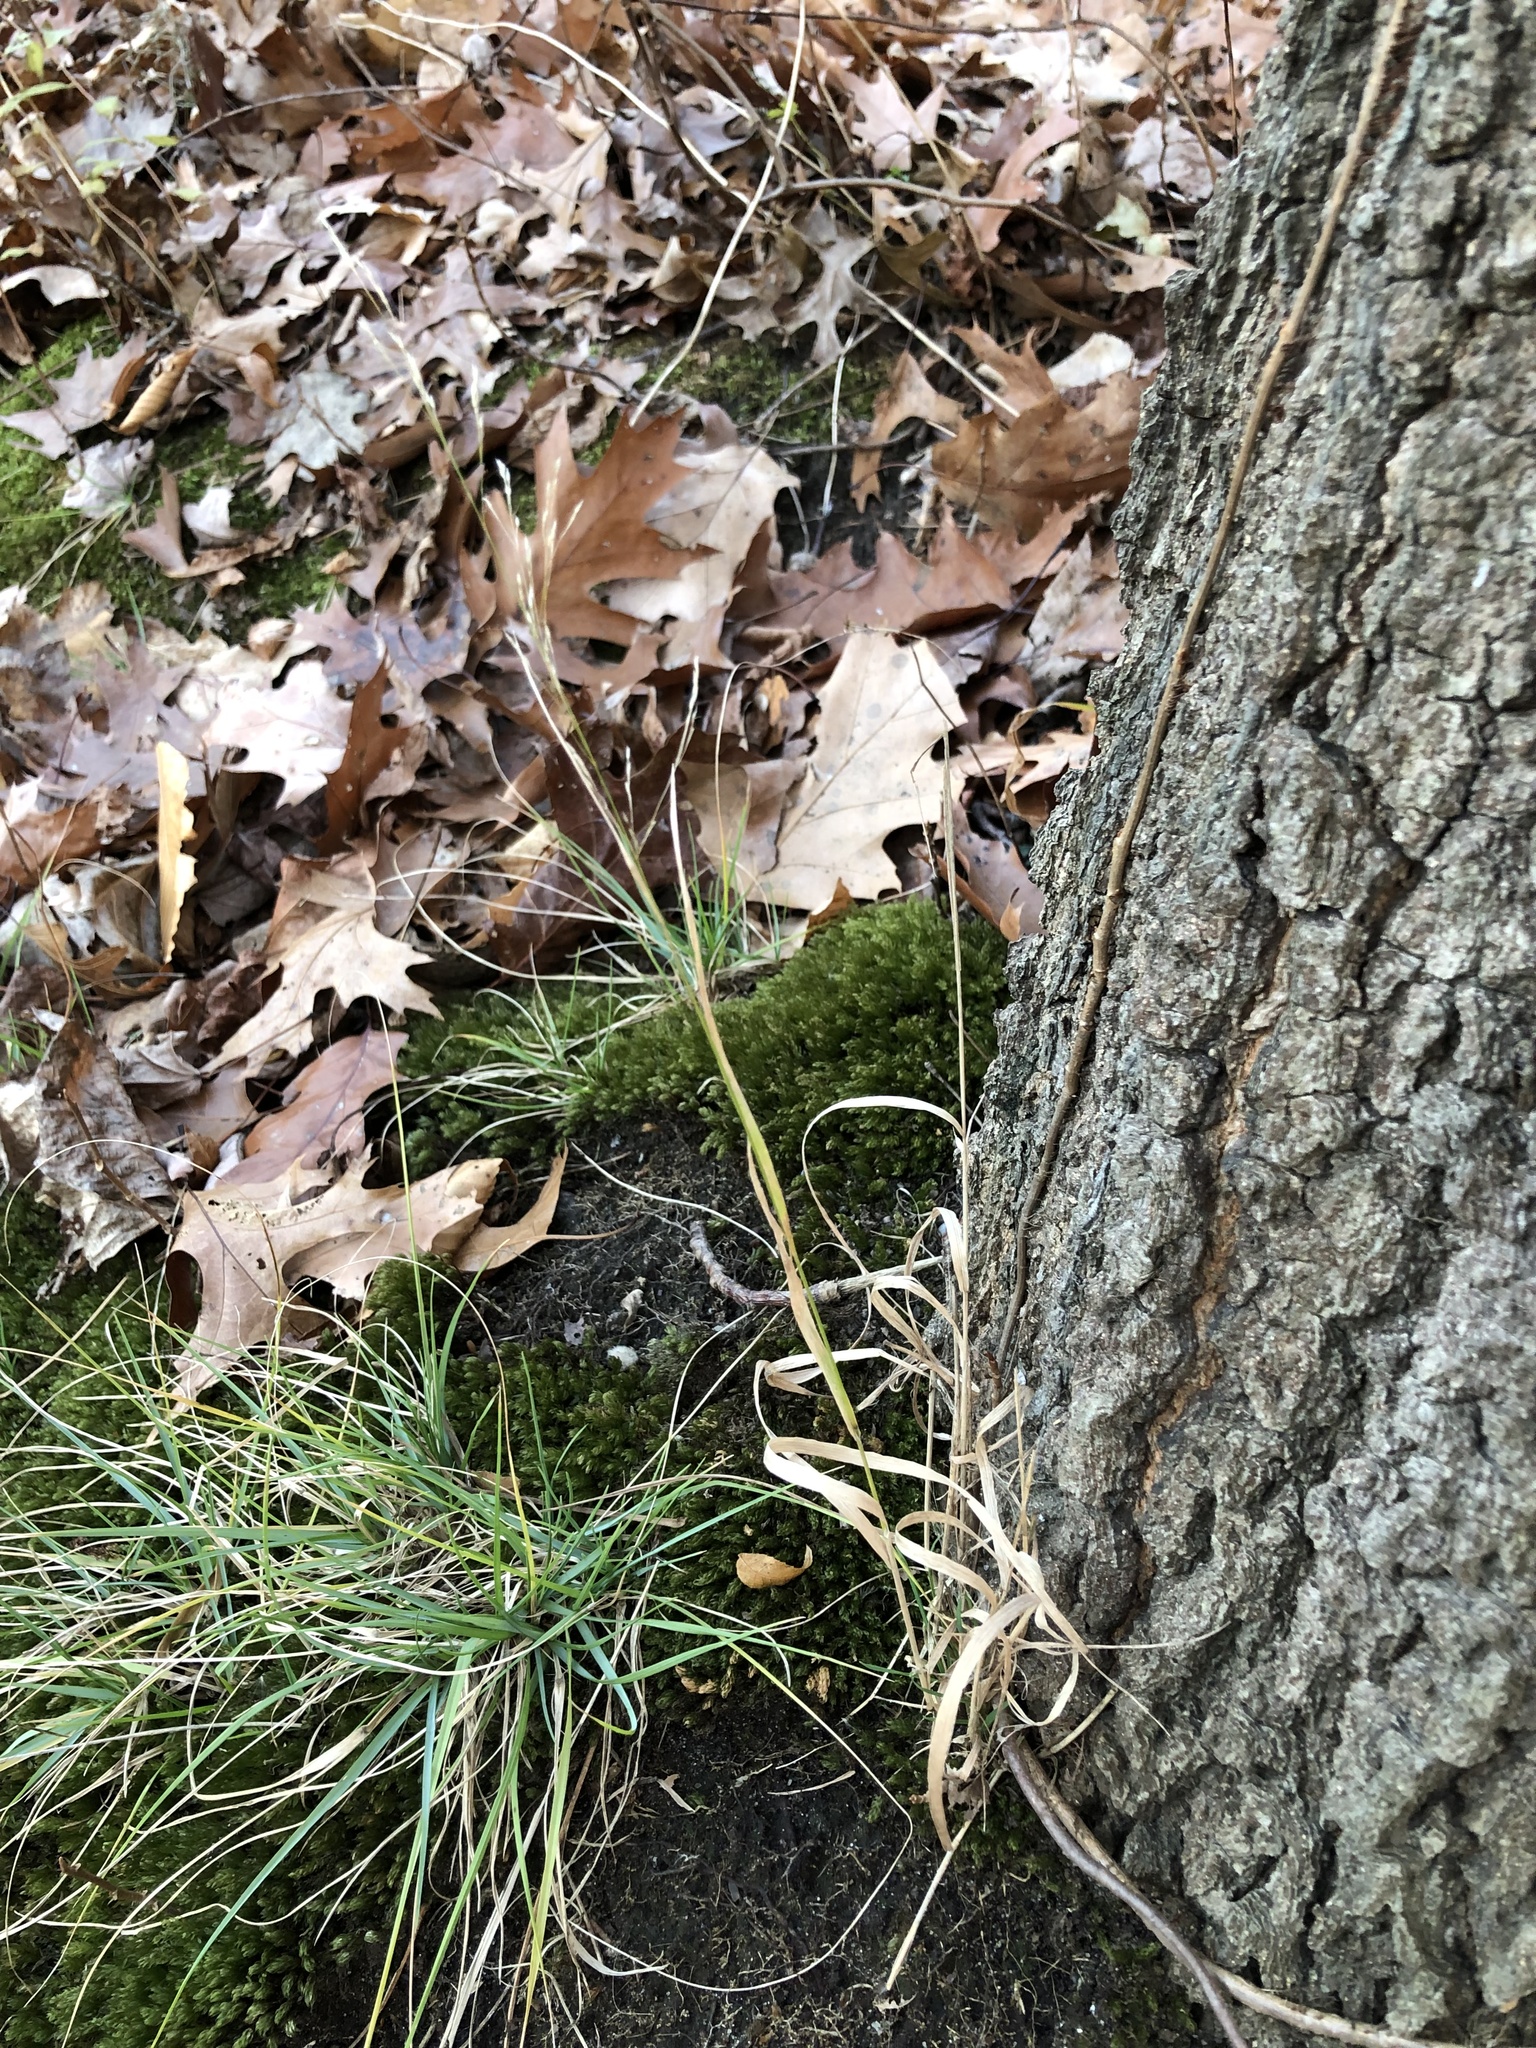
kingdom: Plantae
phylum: Tracheophyta
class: Liliopsida
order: Poales
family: Poaceae
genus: Agrostis
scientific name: Agrostis perennans
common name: Autumn bent
